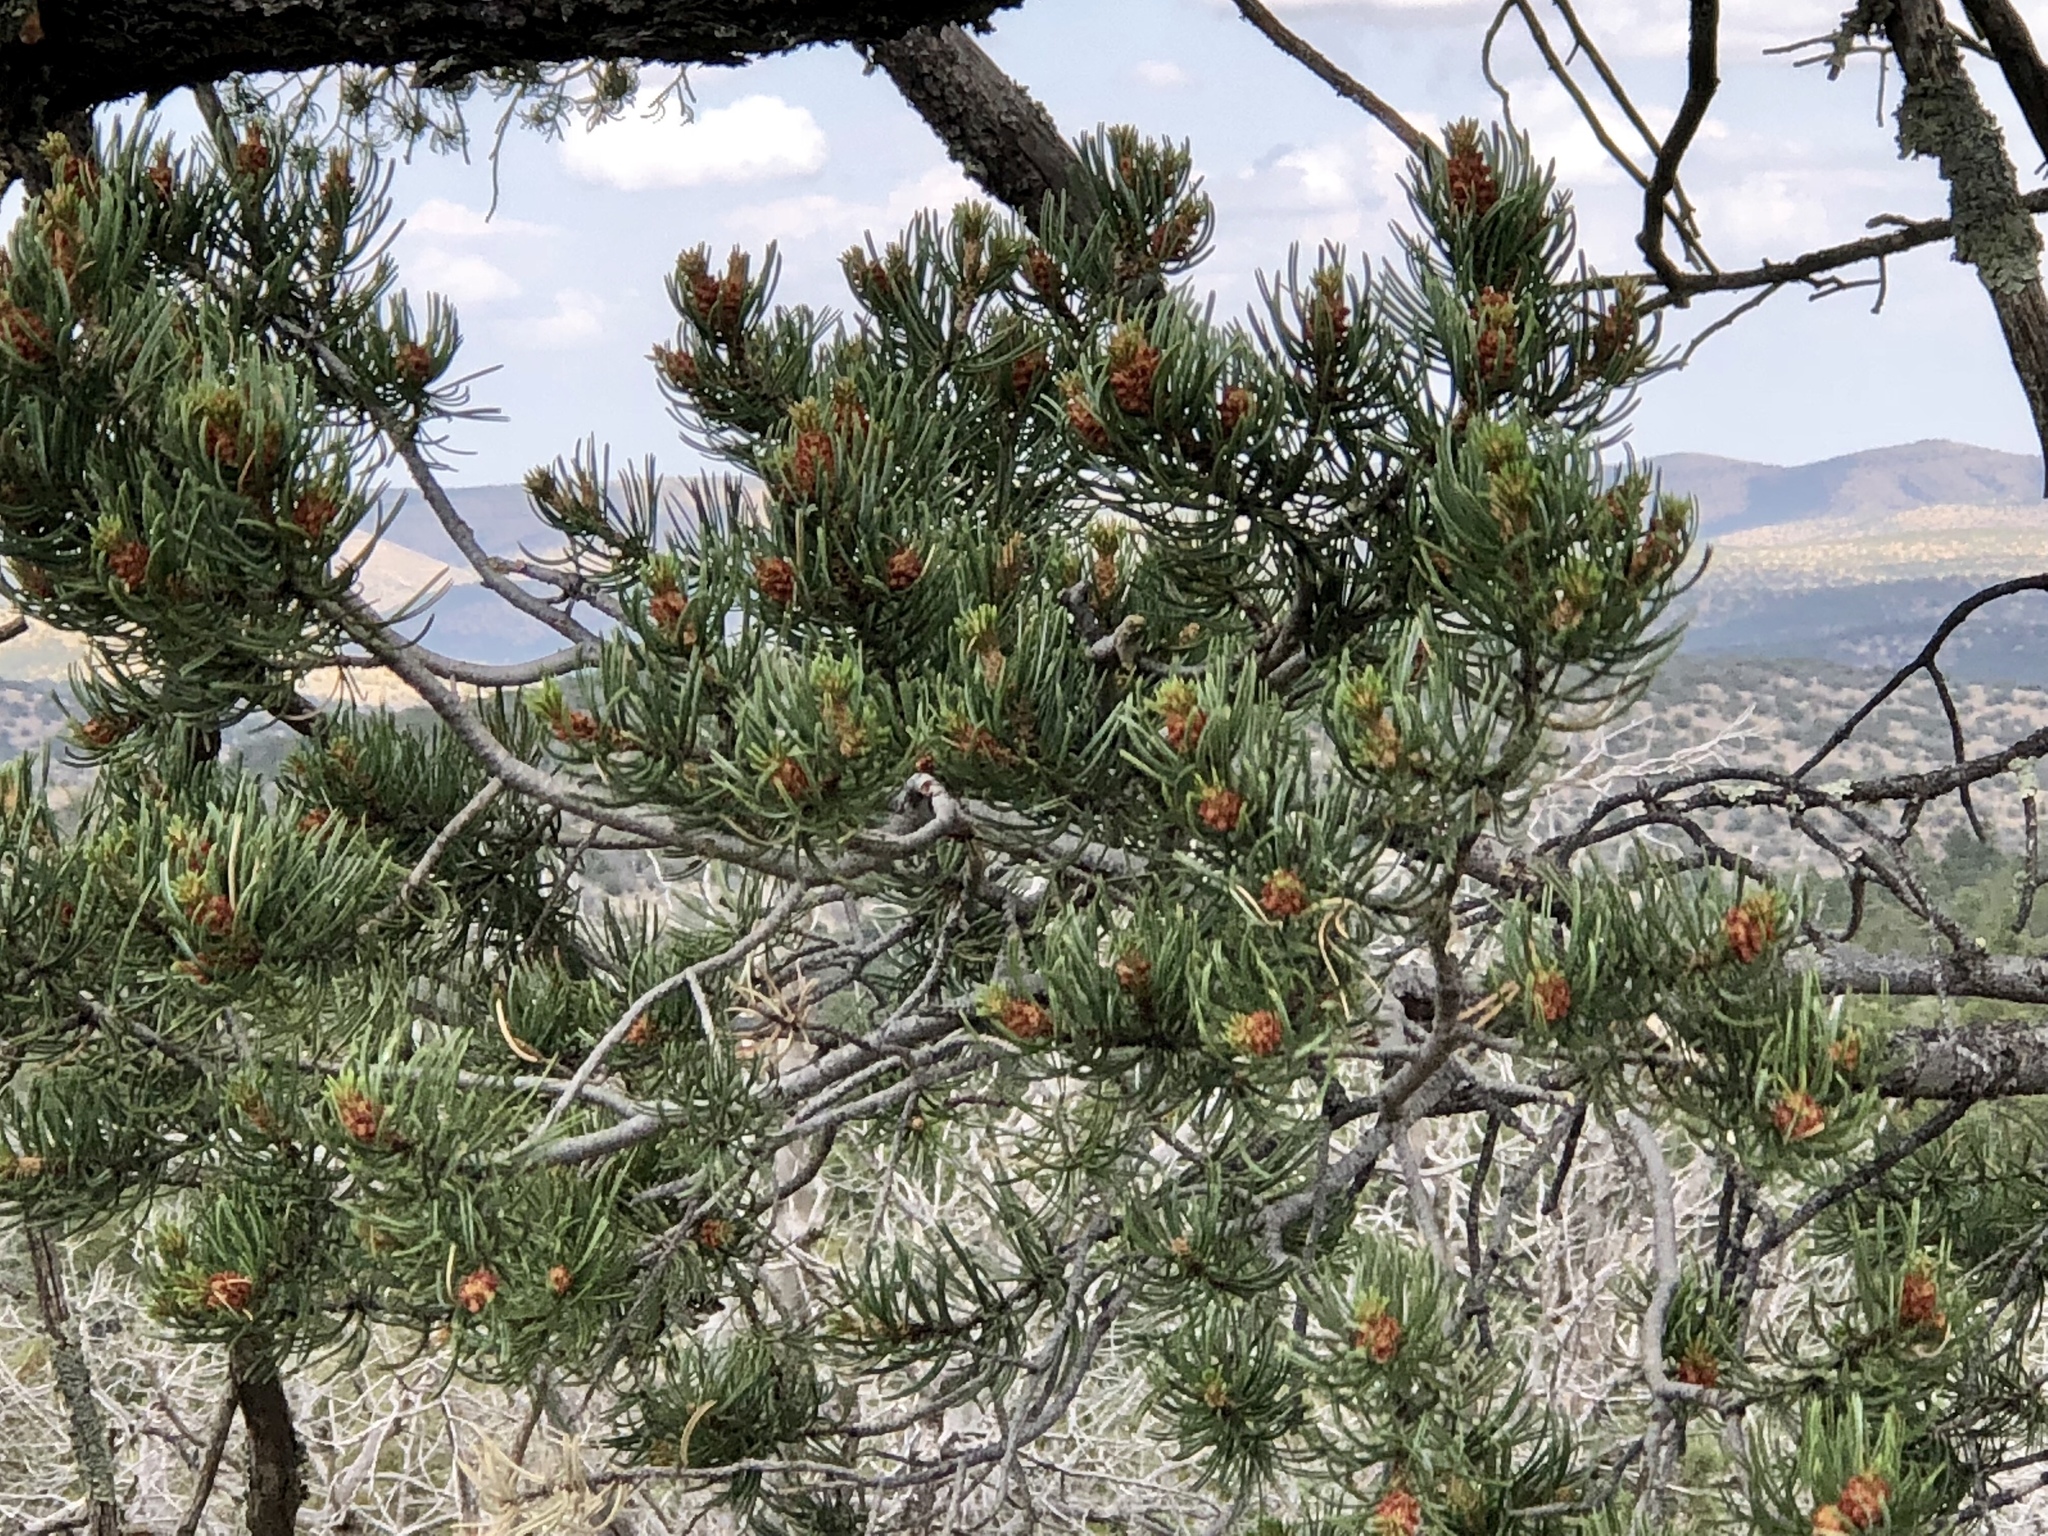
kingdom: Plantae
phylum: Tracheophyta
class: Pinopsida
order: Pinales
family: Pinaceae
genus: Pinus
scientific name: Pinus edulis
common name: Colorado pinyon
